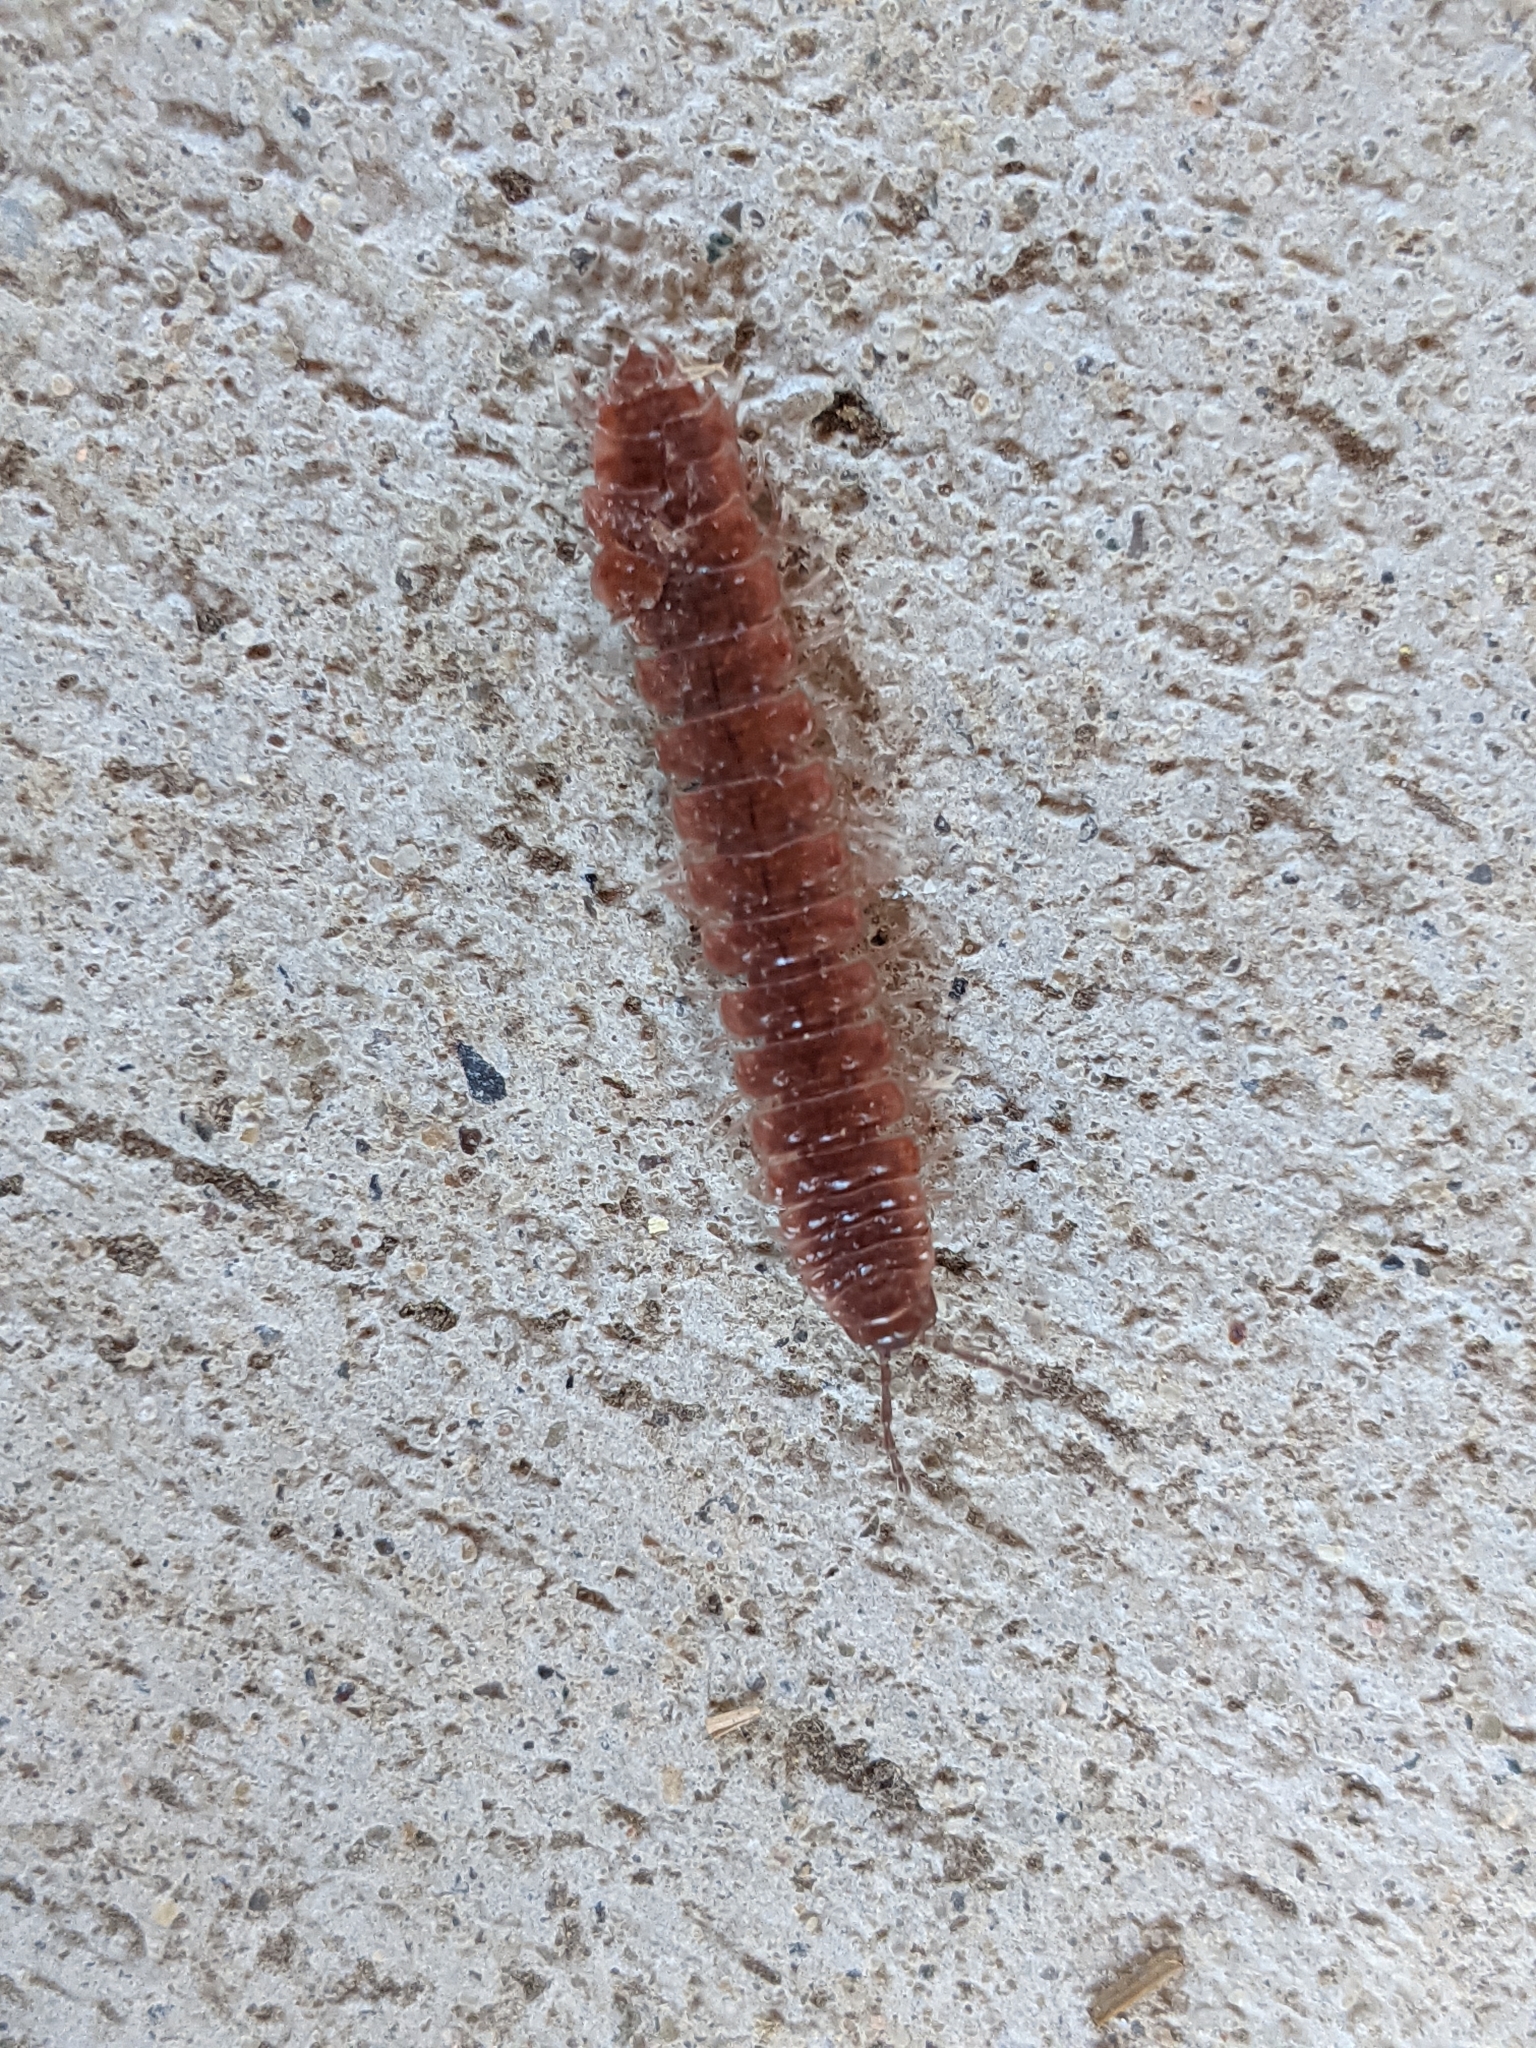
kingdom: Animalia
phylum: Arthropoda
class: Diplopoda
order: Polydesmida
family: Polydesmidae
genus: Pseudopolydesmus
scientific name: Pseudopolydesmus serratus
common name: Common pink flat-back millipede
